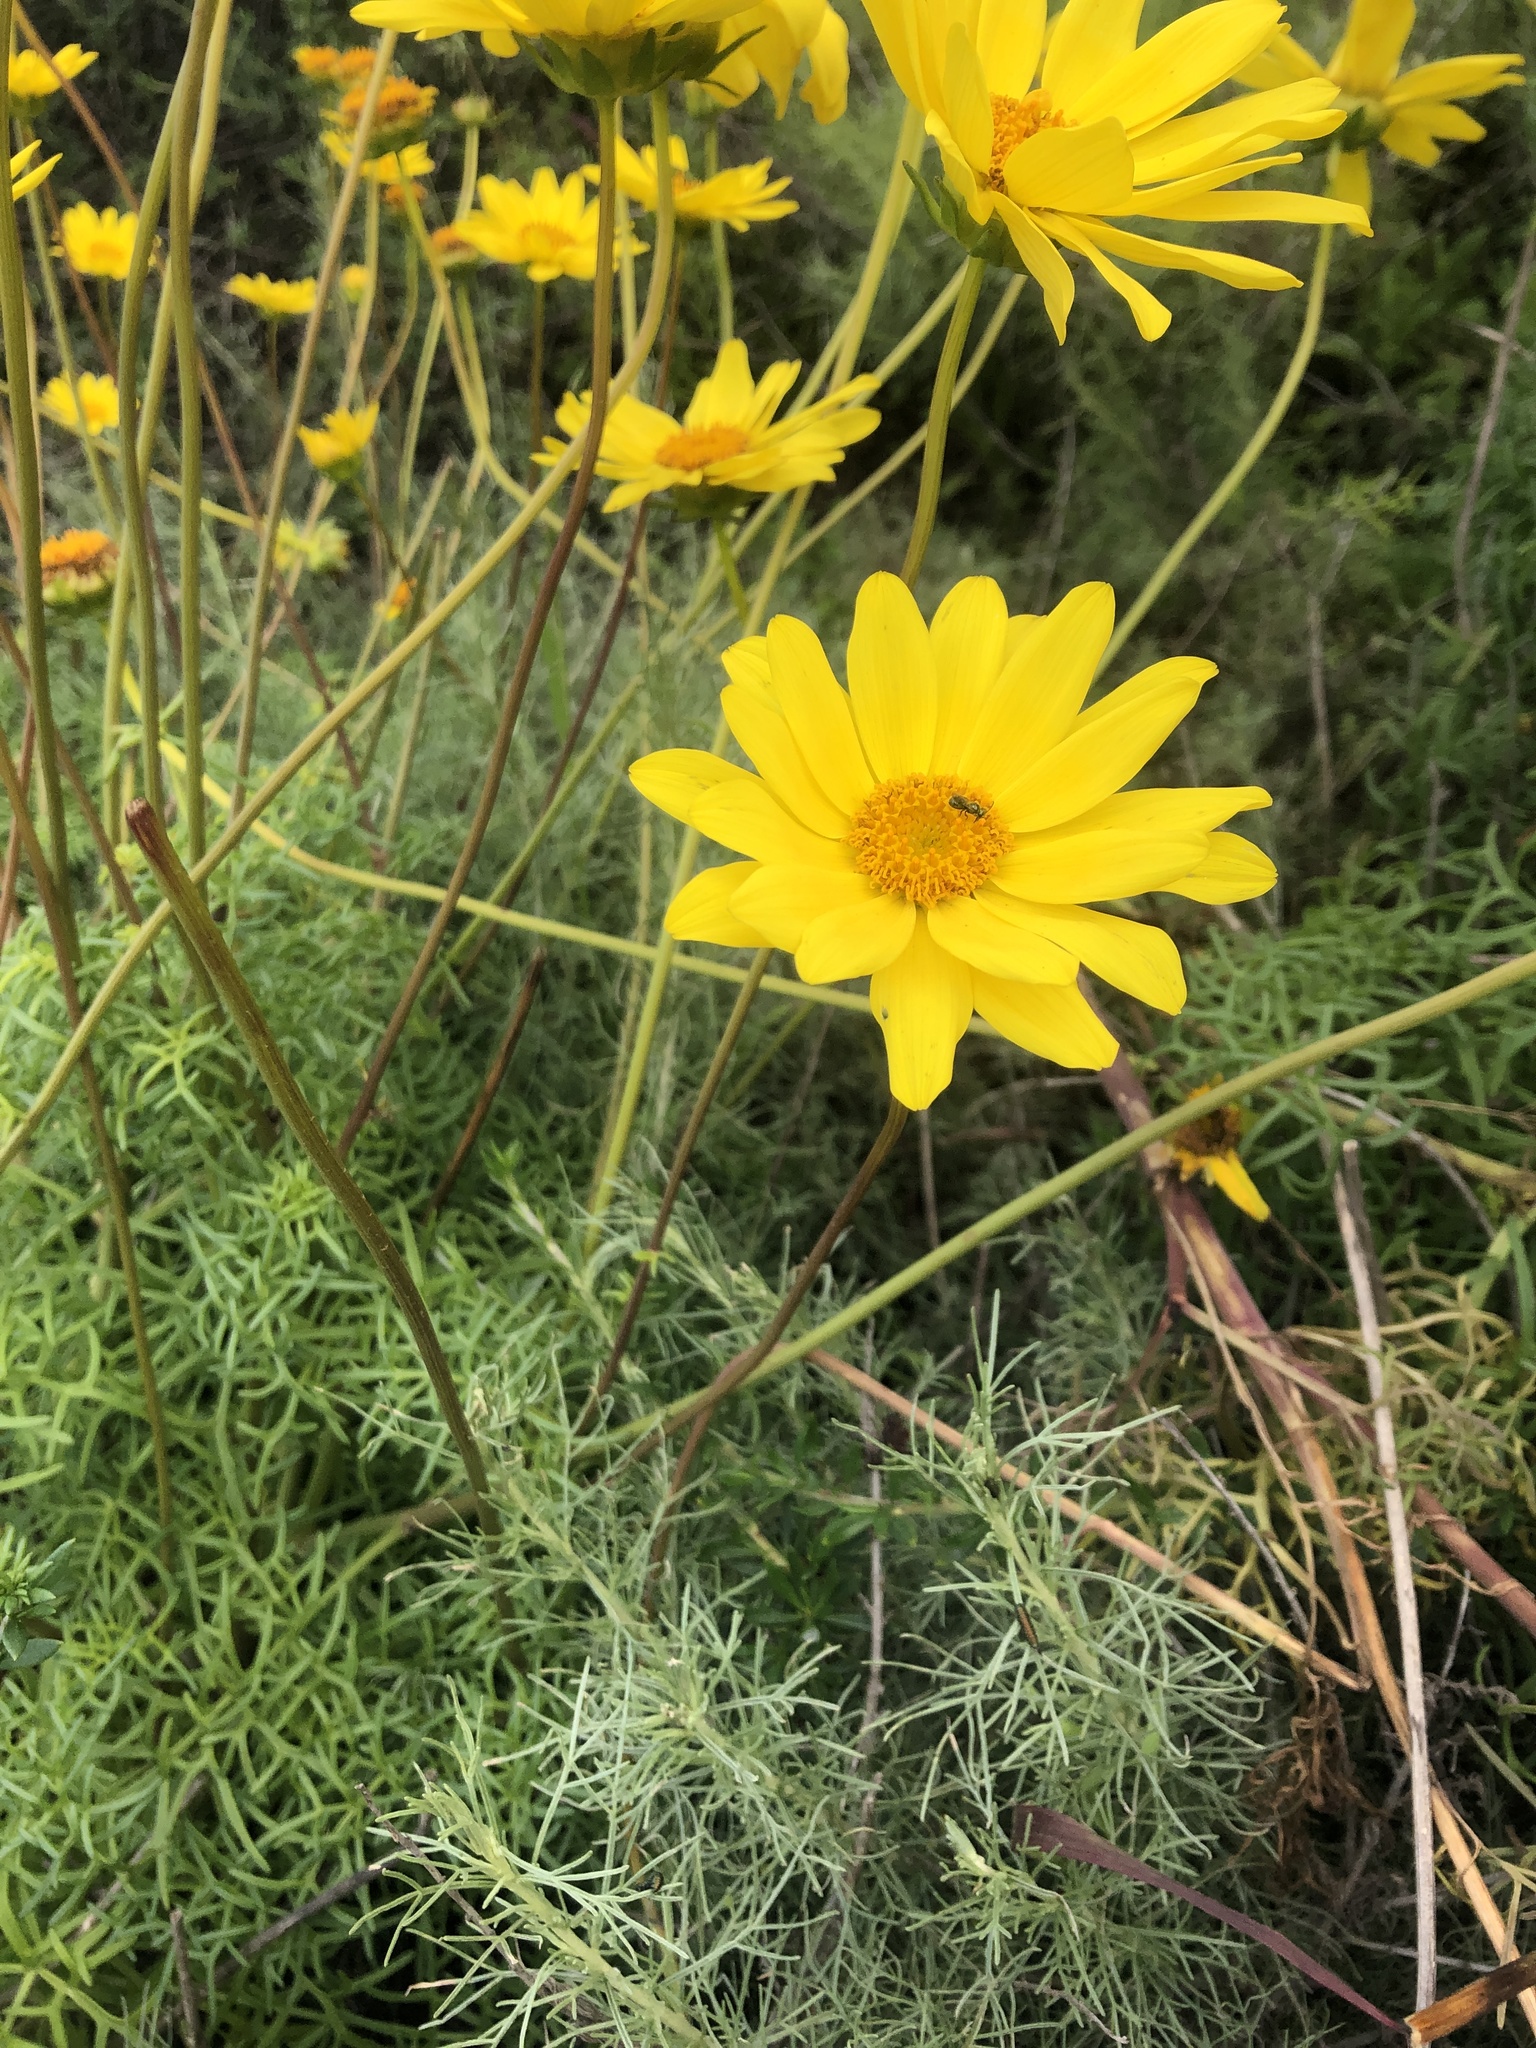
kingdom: Plantae
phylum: Tracheophyta
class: Magnoliopsida
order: Asterales
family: Asteraceae
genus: Coreopsis
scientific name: Coreopsis maritima
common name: Sea-dahlia
